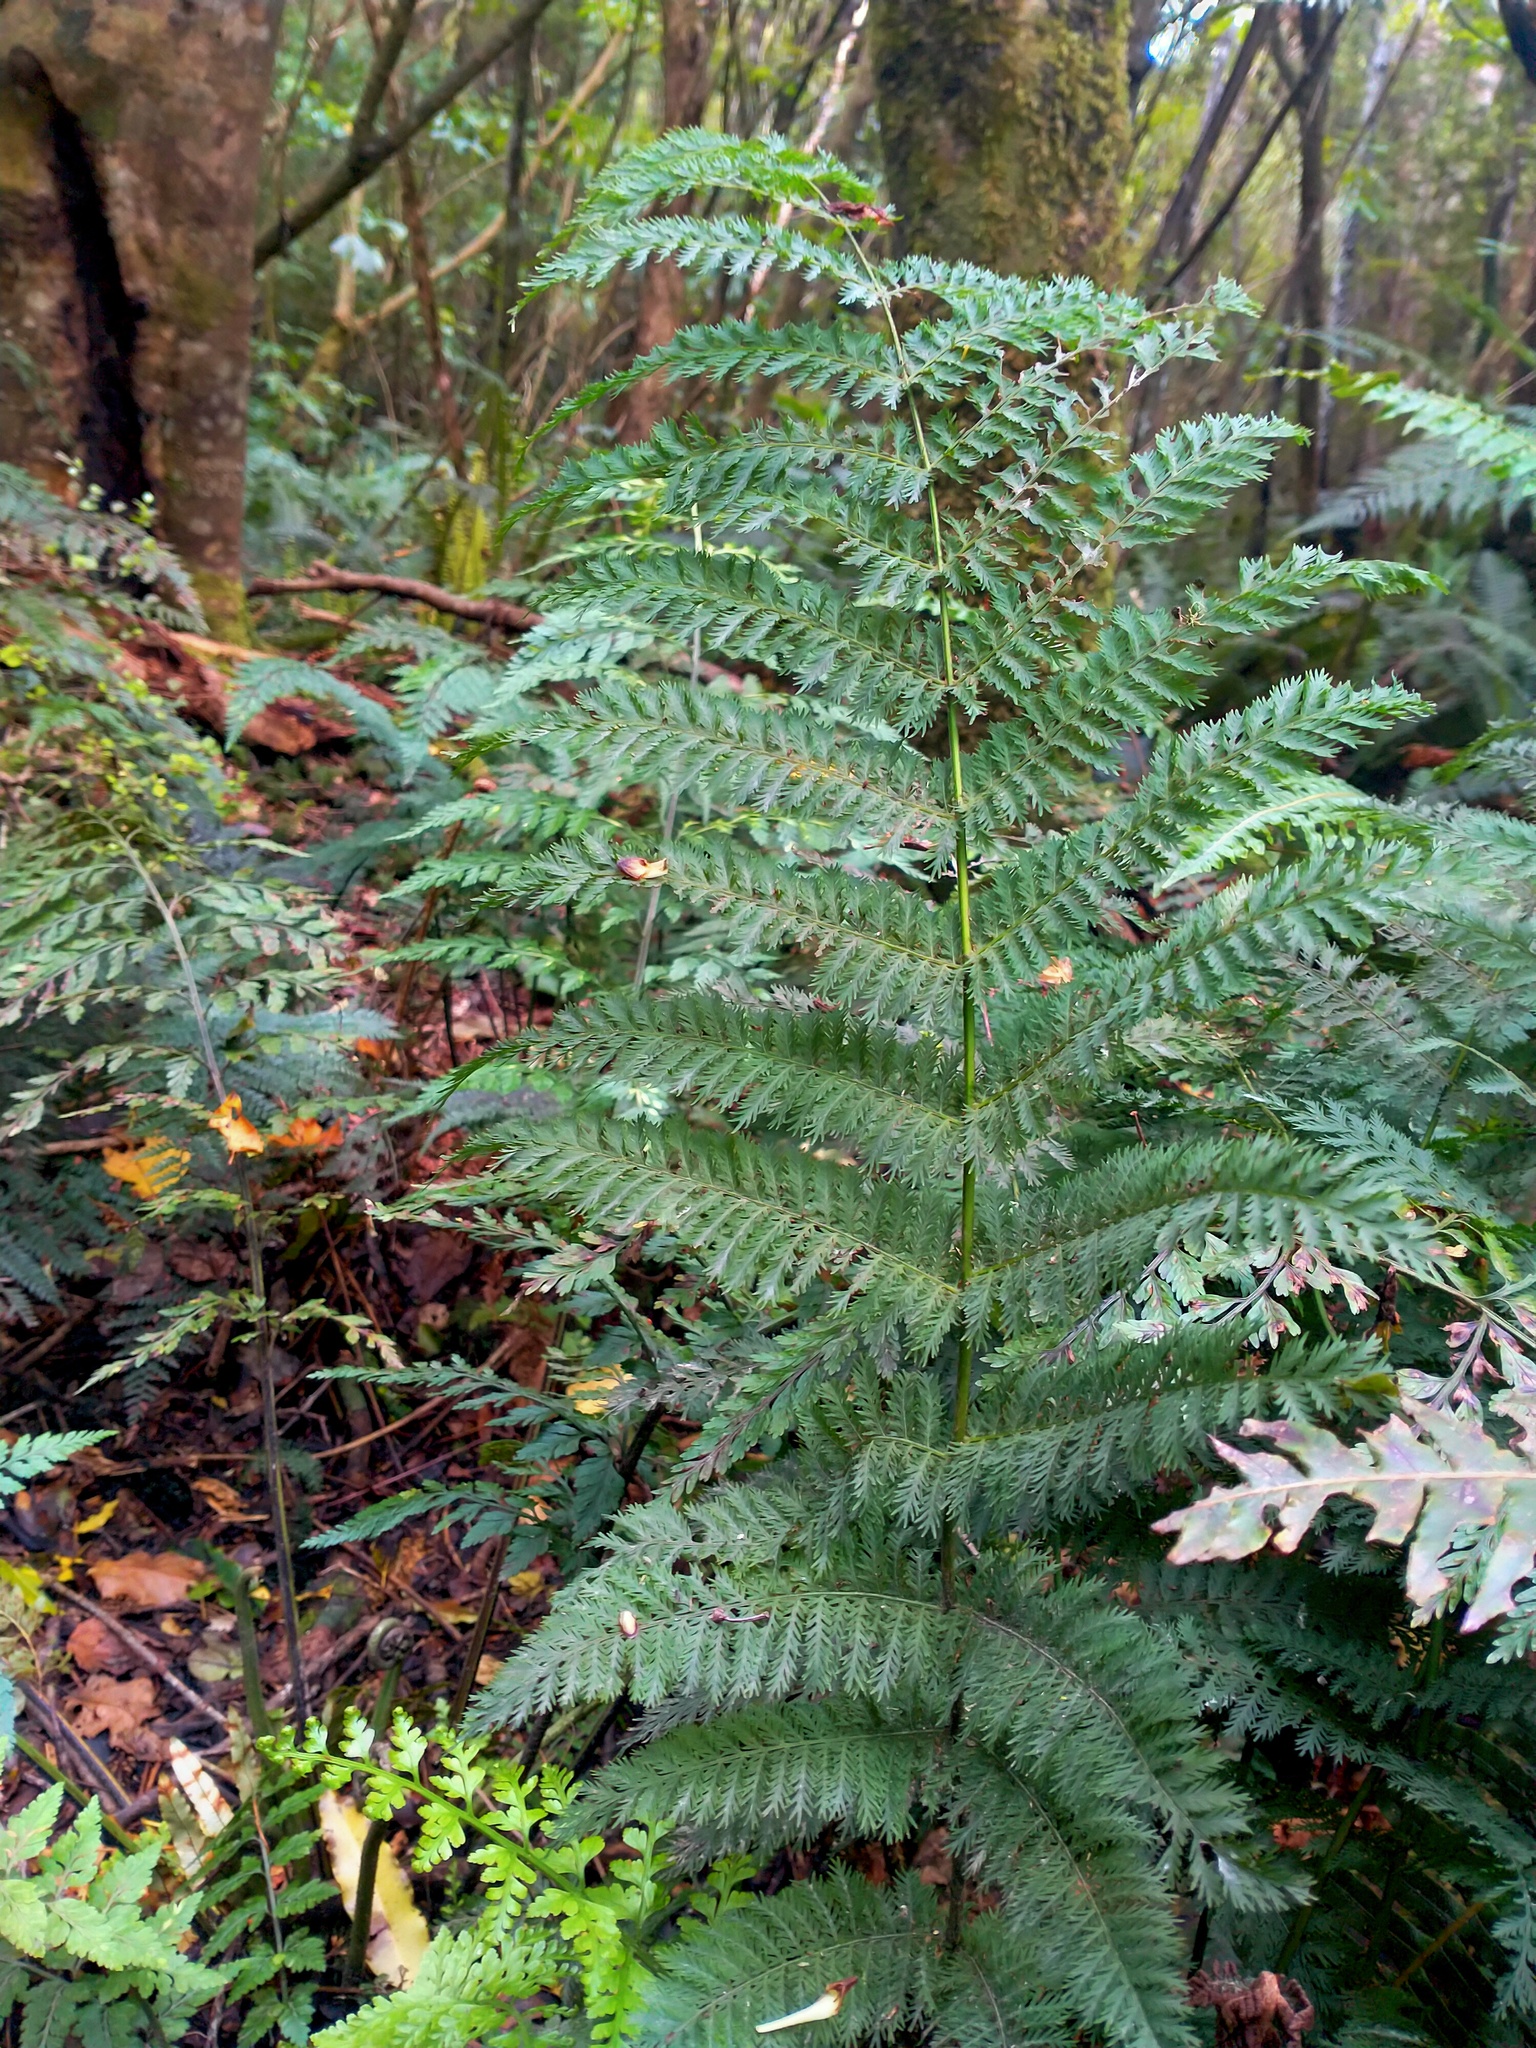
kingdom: Plantae
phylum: Tracheophyta
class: Polypodiopsida
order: Osmundales
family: Osmundaceae
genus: Leptopteris
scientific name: Leptopteris hymenophylloides
